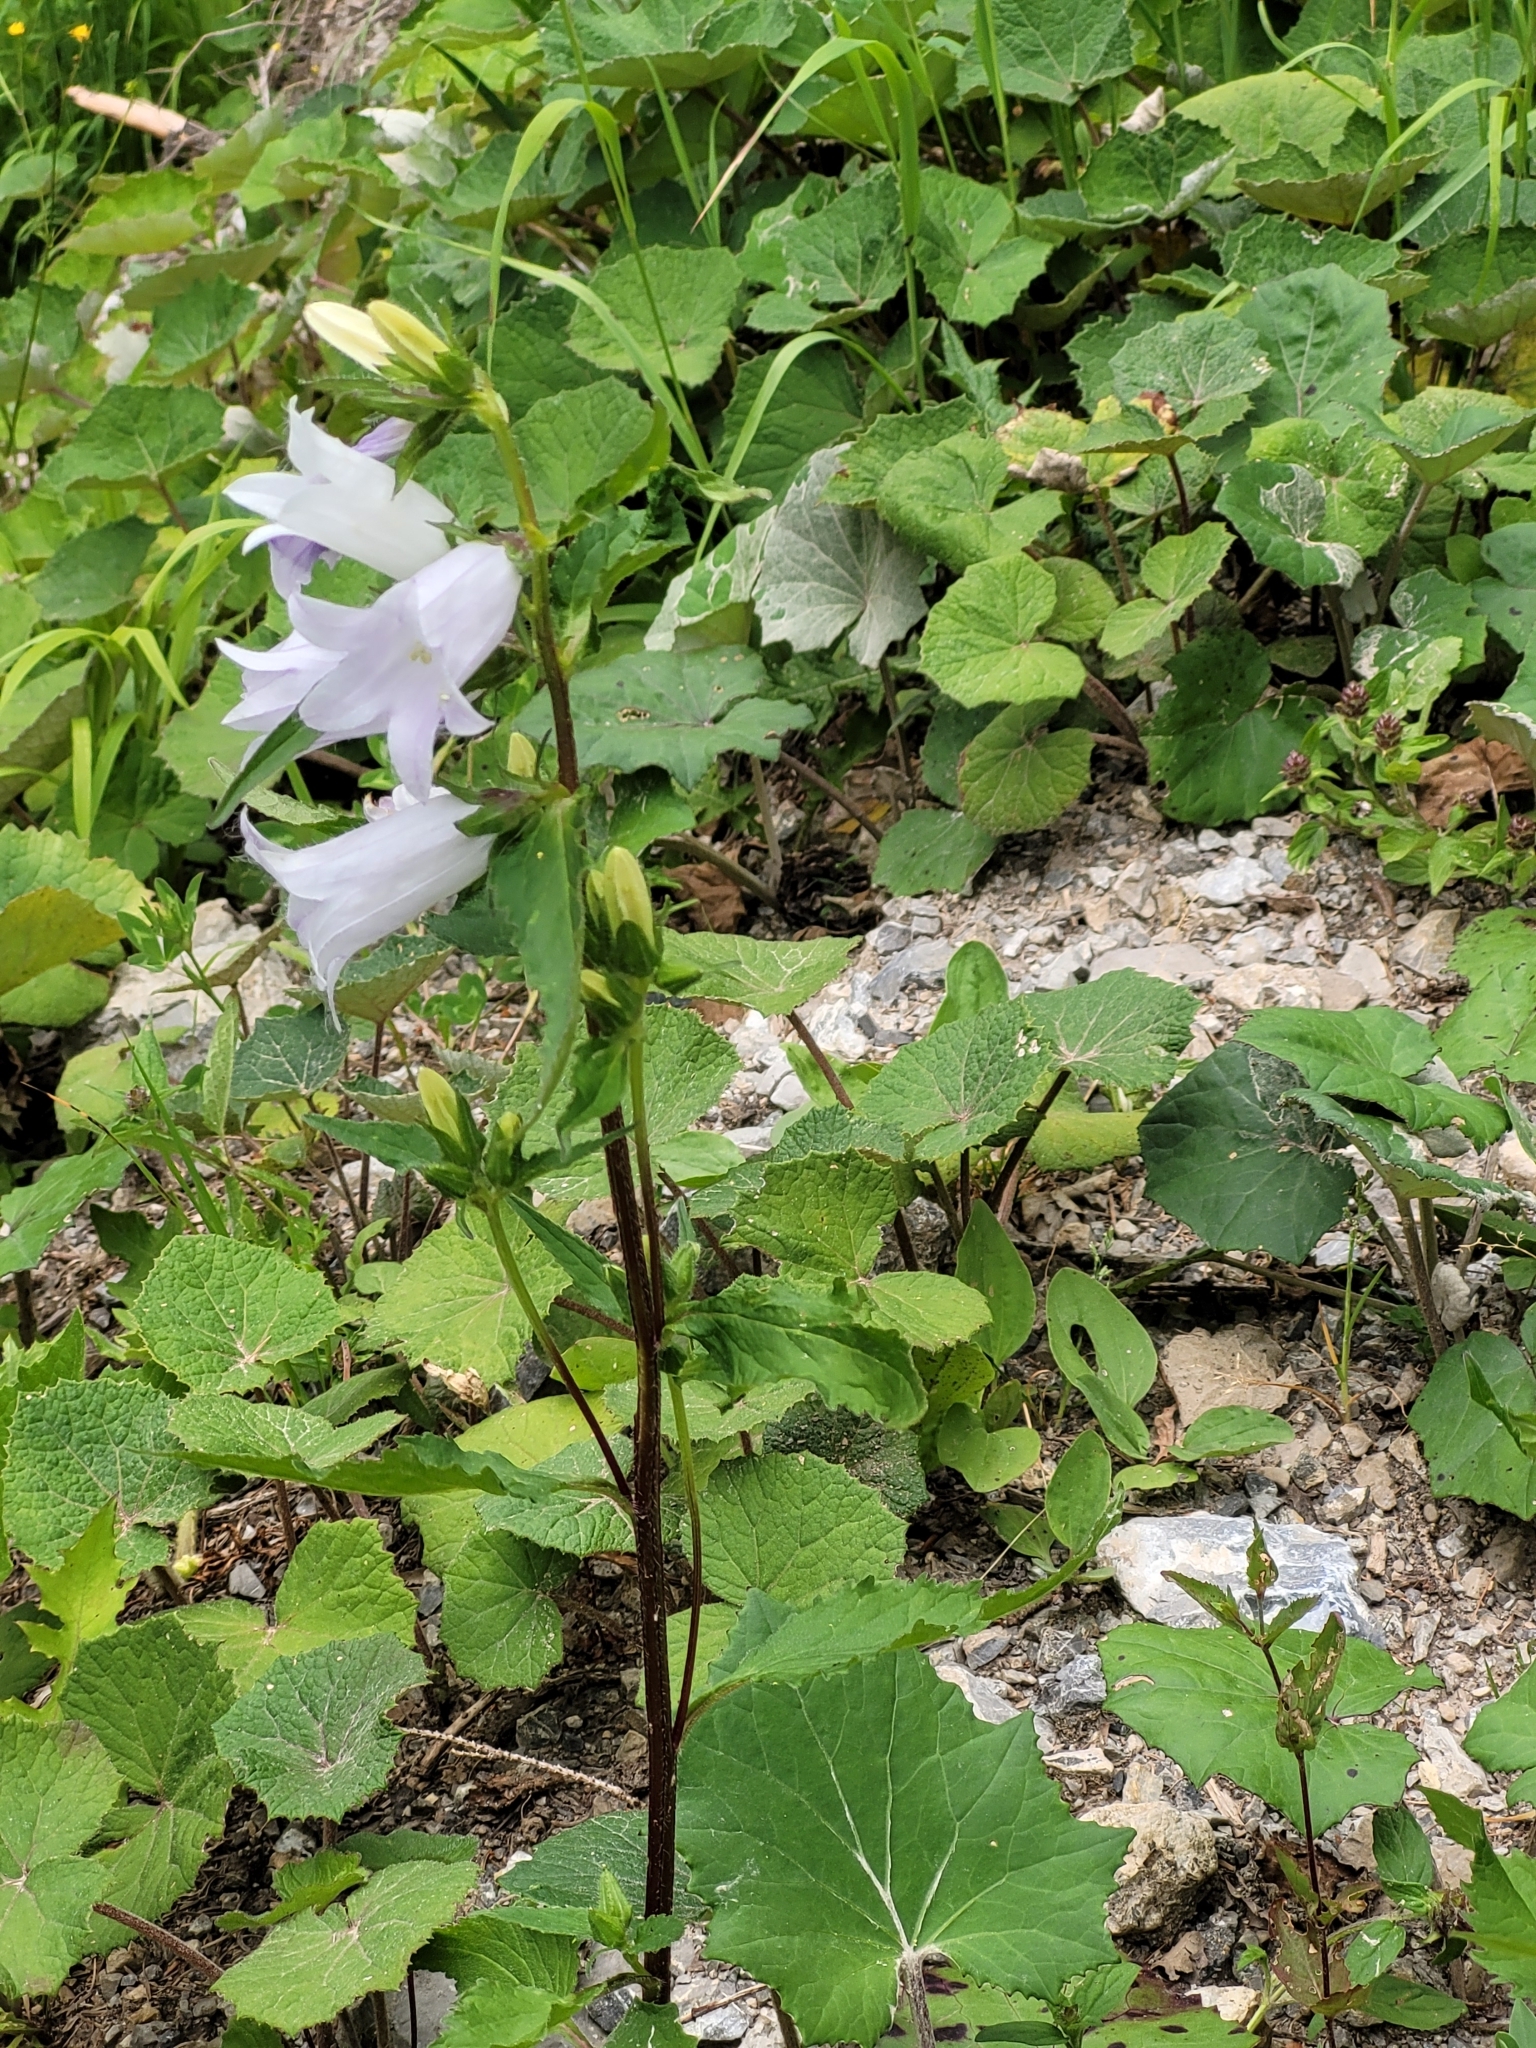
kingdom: Plantae
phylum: Tracheophyta
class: Magnoliopsida
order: Asterales
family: Campanulaceae
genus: Campanula
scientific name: Campanula trachelium
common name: Nettle-leaved bellflower
